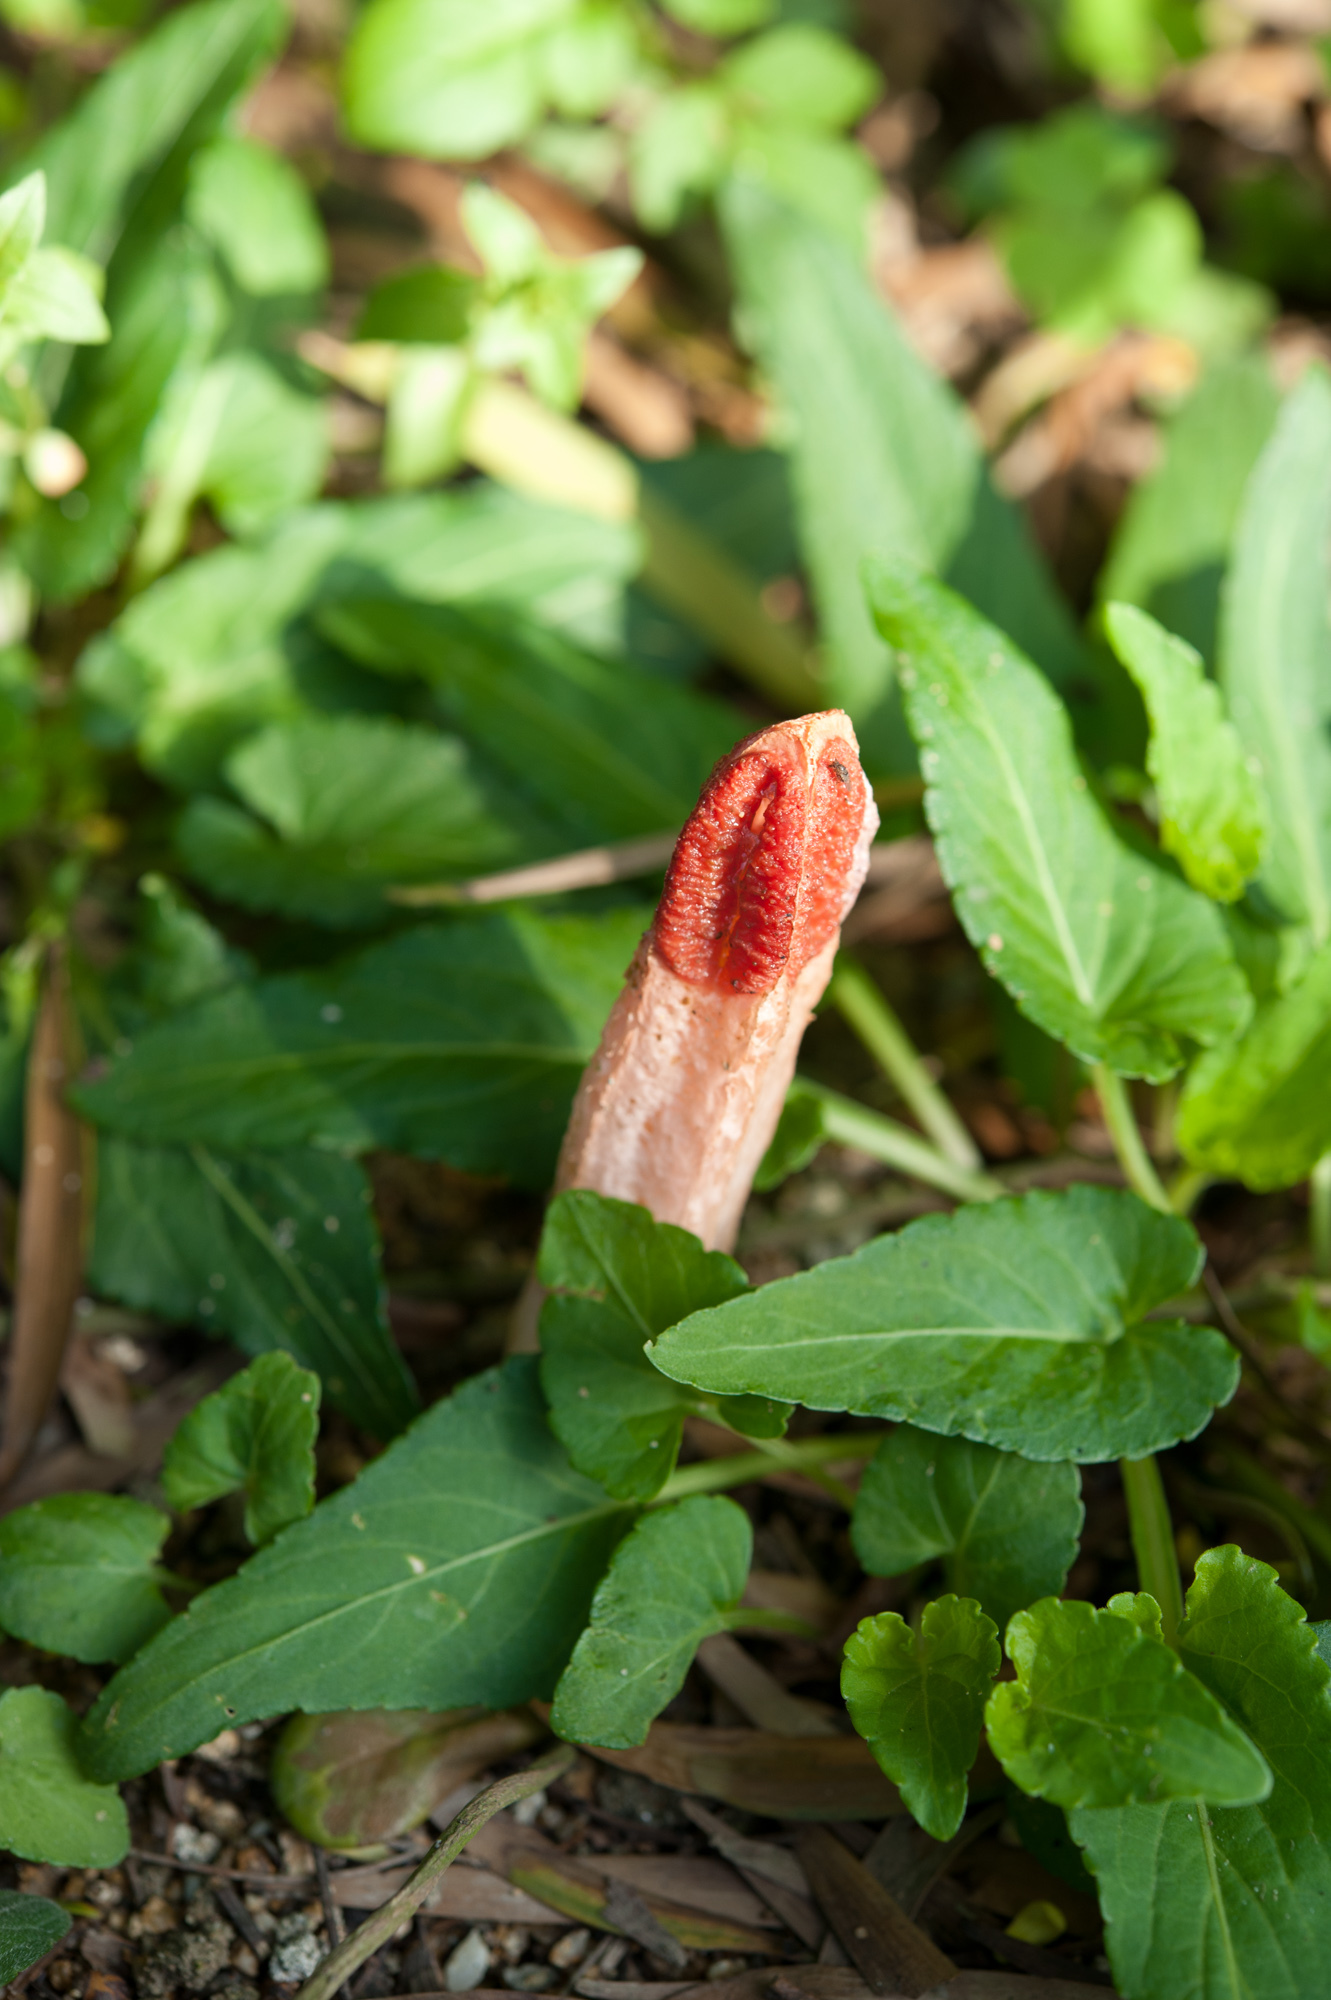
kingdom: Fungi
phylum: Basidiomycota
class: Agaricomycetes
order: Phallales
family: Phallaceae
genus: Lysurus
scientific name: Lysurus mokusin
